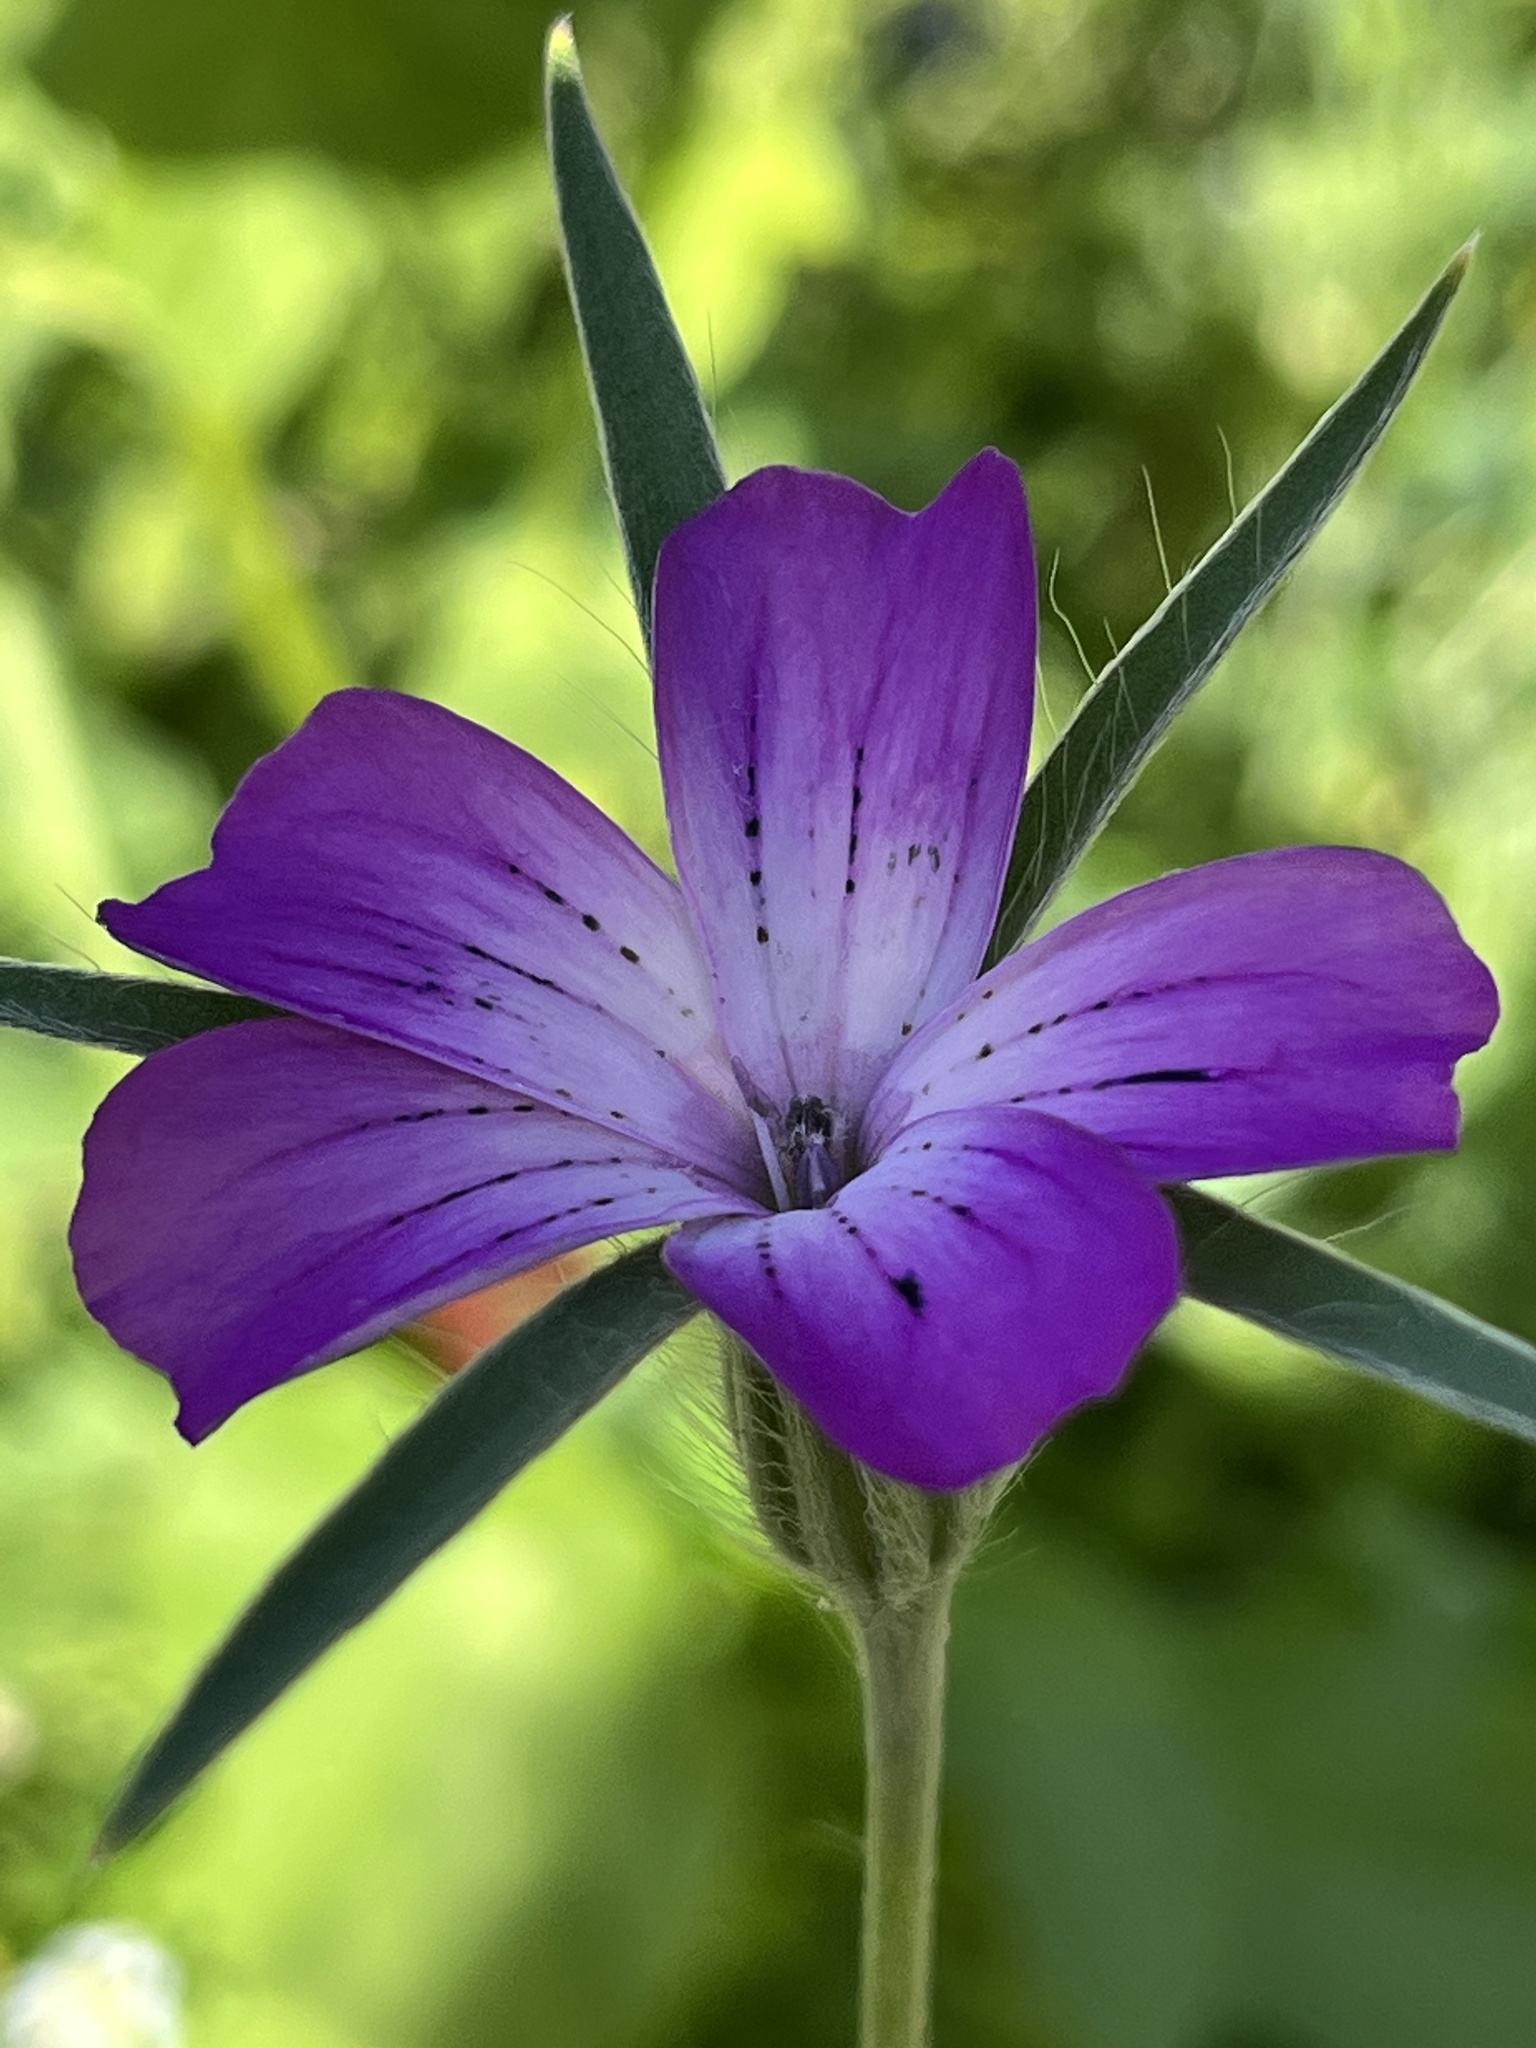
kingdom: Plantae
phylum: Tracheophyta
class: Magnoliopsida
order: Caryophyllales
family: Caryophyllaceae
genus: Agrostemma
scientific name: Agrostemma githago
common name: Common corncockle
